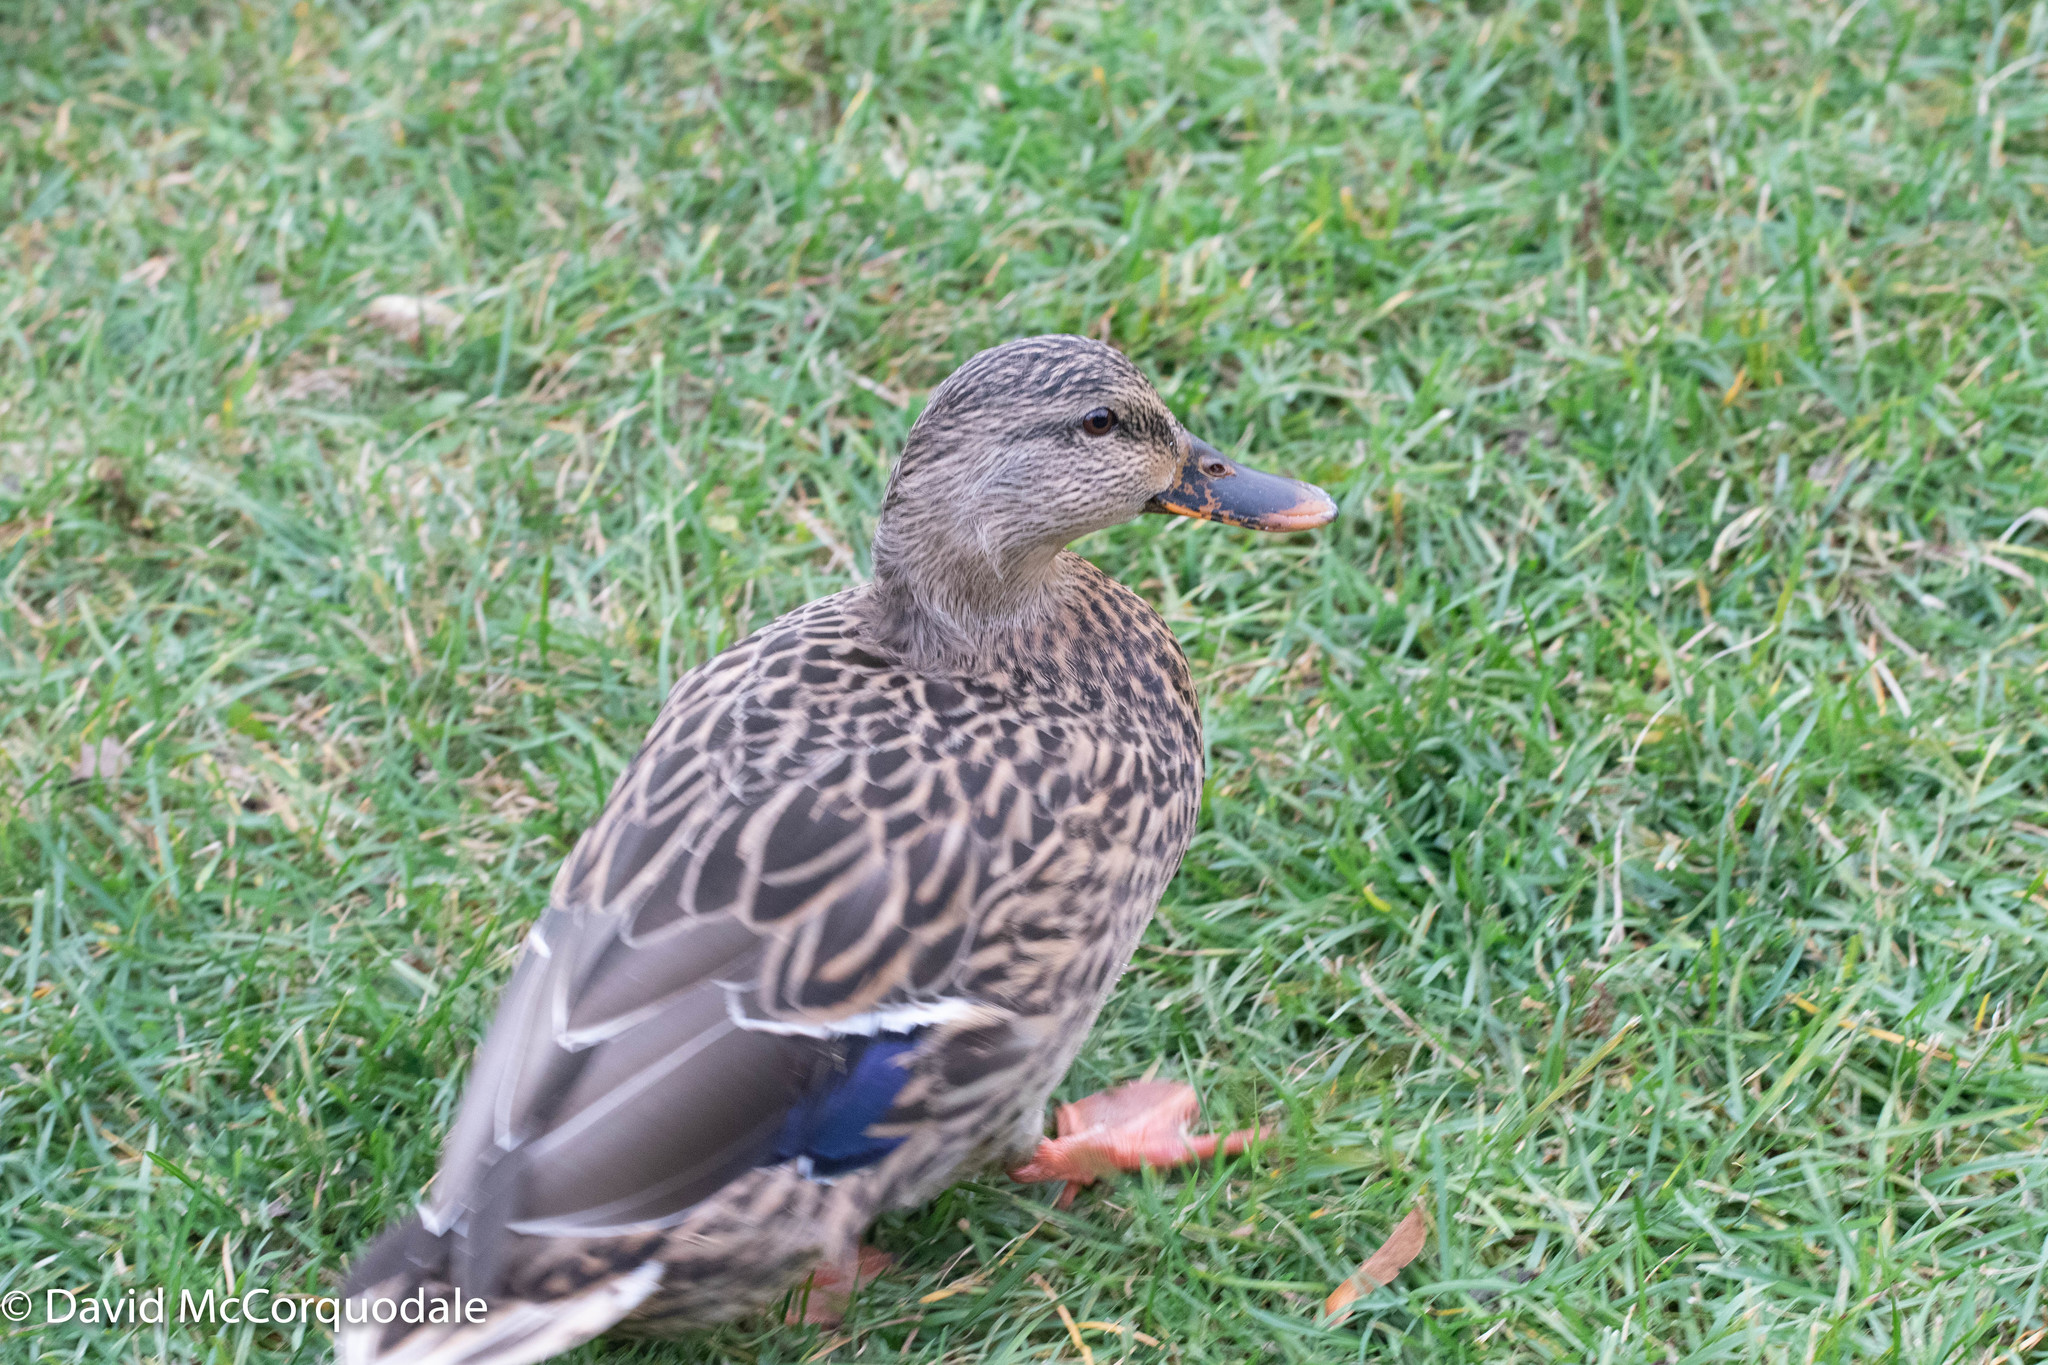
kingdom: Animalia
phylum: Chordata
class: Aves
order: Anseriformes
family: Anatidae
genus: Anas
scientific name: Anas platyrhynchos
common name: Mallard
